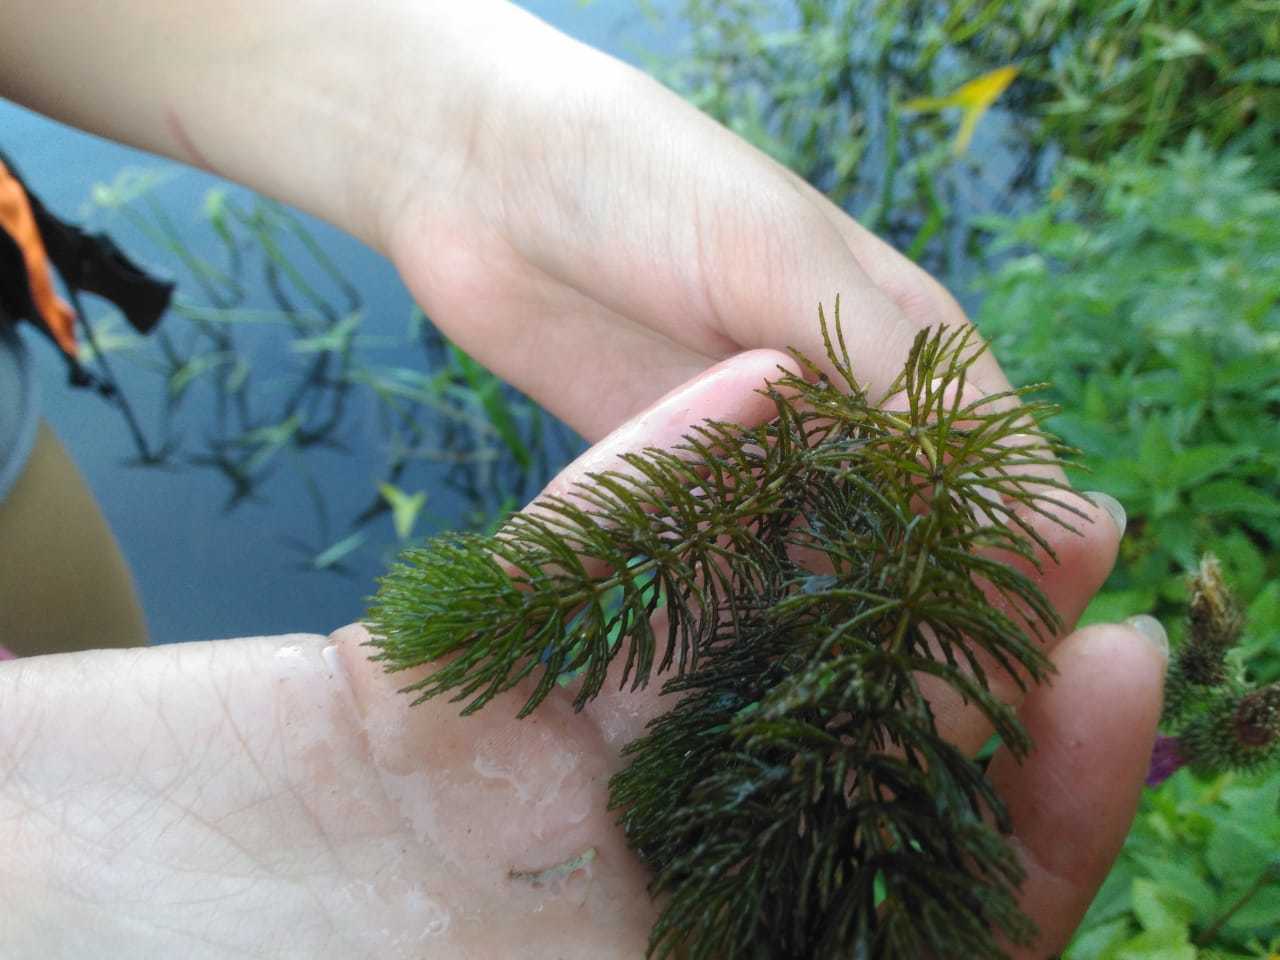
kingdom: Plantae
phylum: Tracheophyta
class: Magnoliopsida
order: Ceratophyllales
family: Ceratophyllaceae
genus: Ceratophyllum
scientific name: Ceratophyllum demersum
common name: Rigid hornwort
